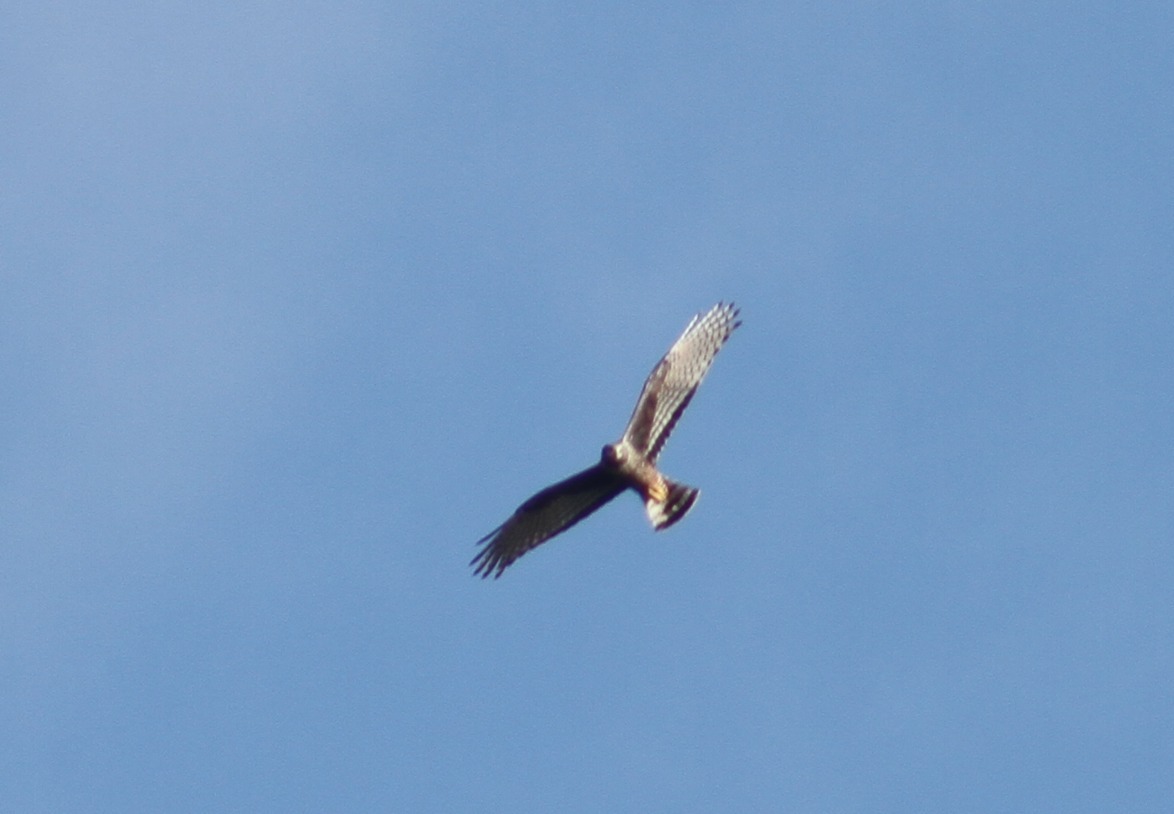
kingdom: Animalia
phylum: Chordata
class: Aves
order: Accipitriformes
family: Accipitridae
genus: Circus
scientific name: Circus buffoni
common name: Long-winged harrier
